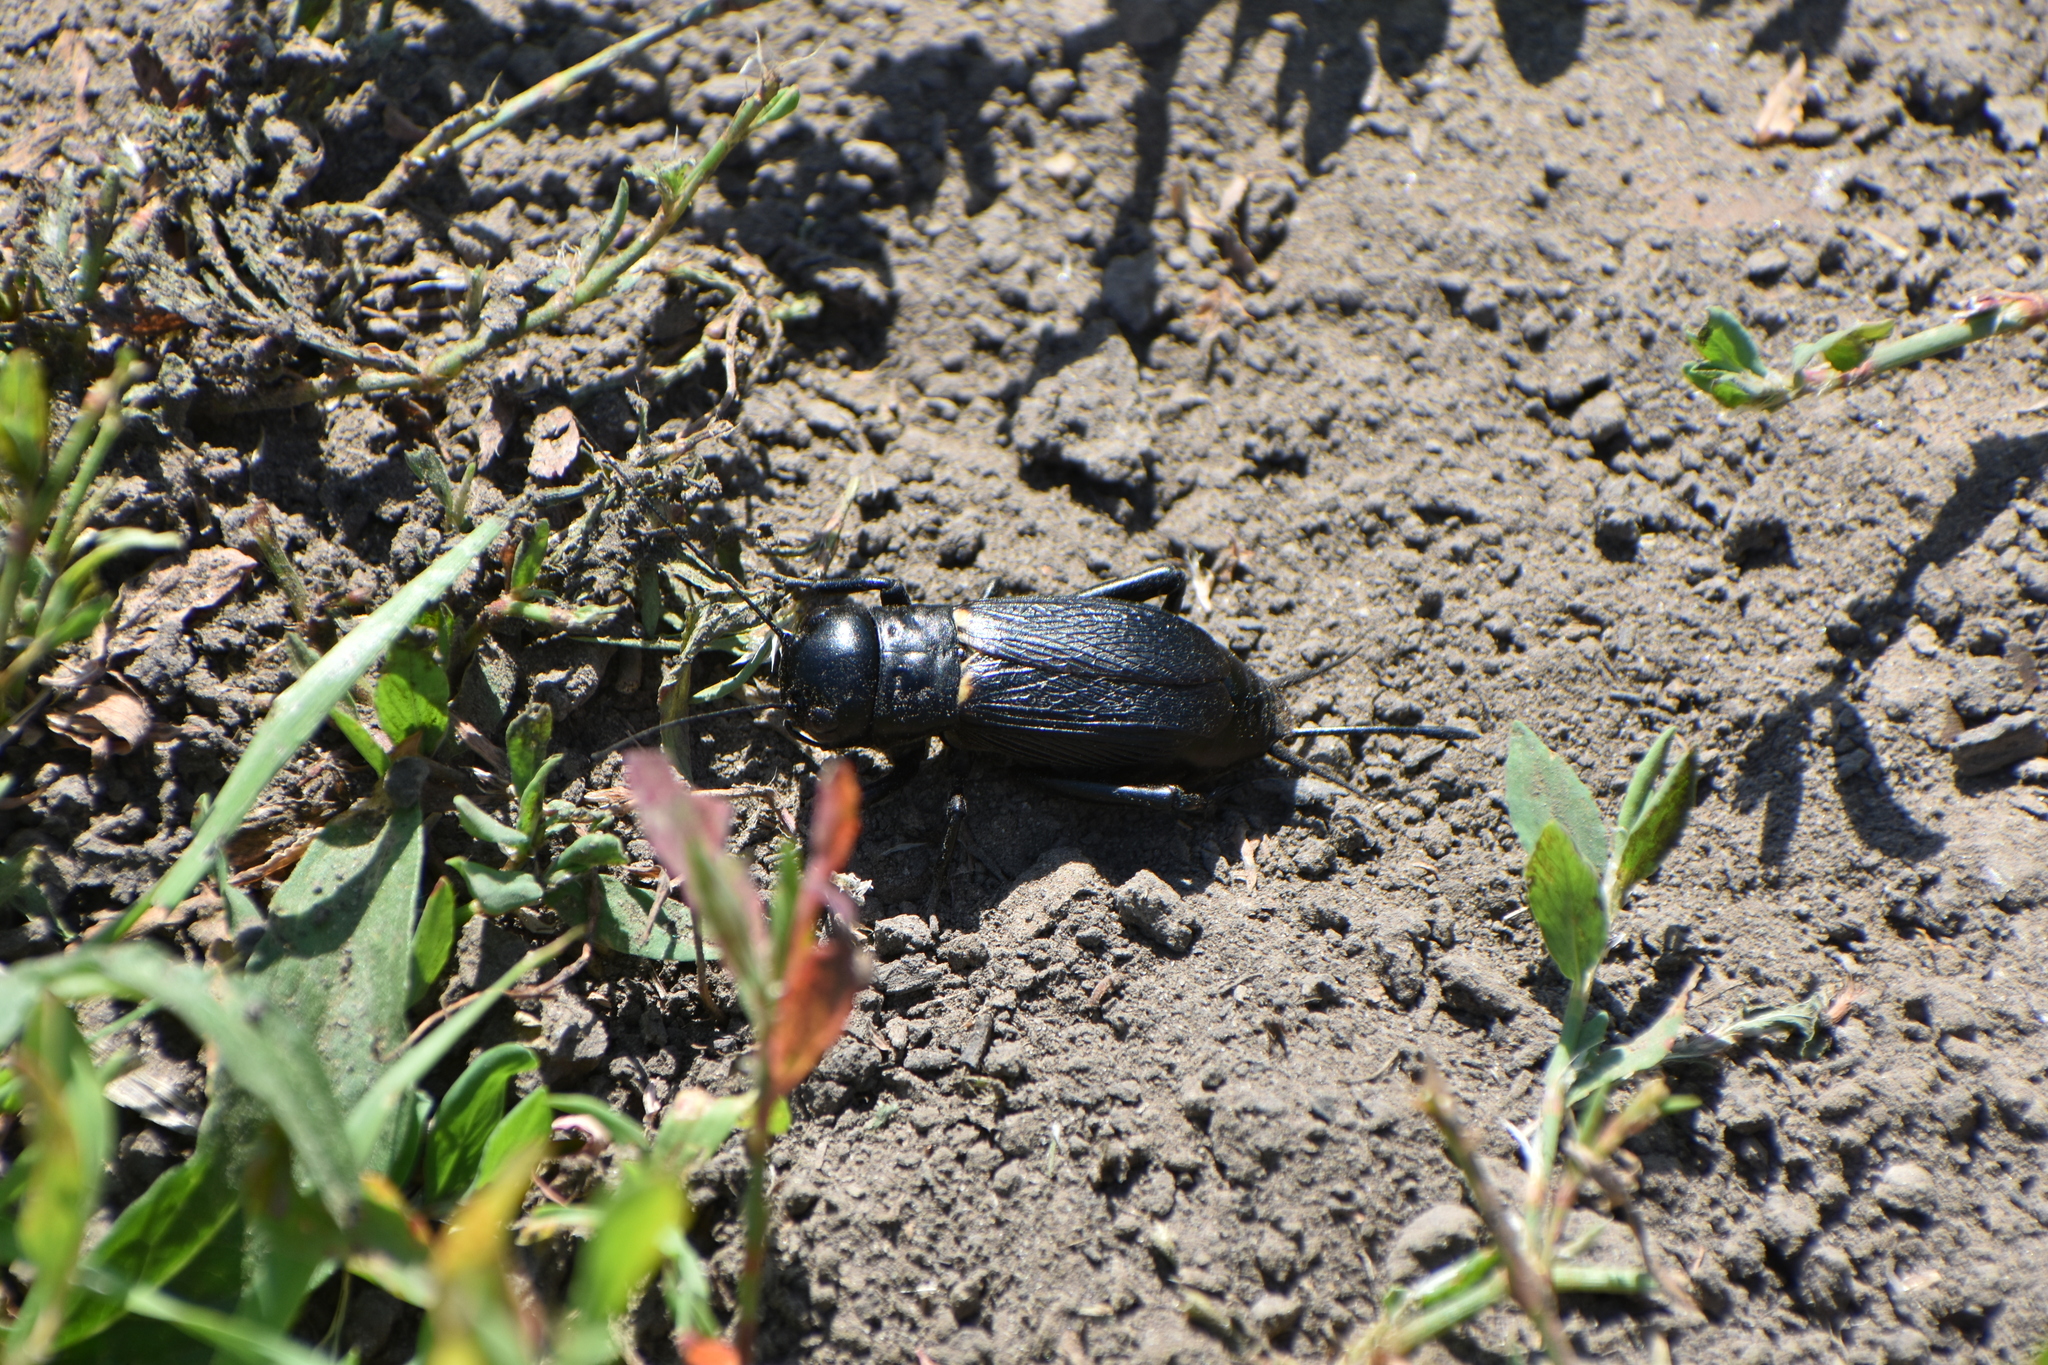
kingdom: Animalia
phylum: Arthropoda
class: Insecta
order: Orthoptera
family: Gryllidae
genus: Gryllus
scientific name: Gryllus campestris
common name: Field cricket
